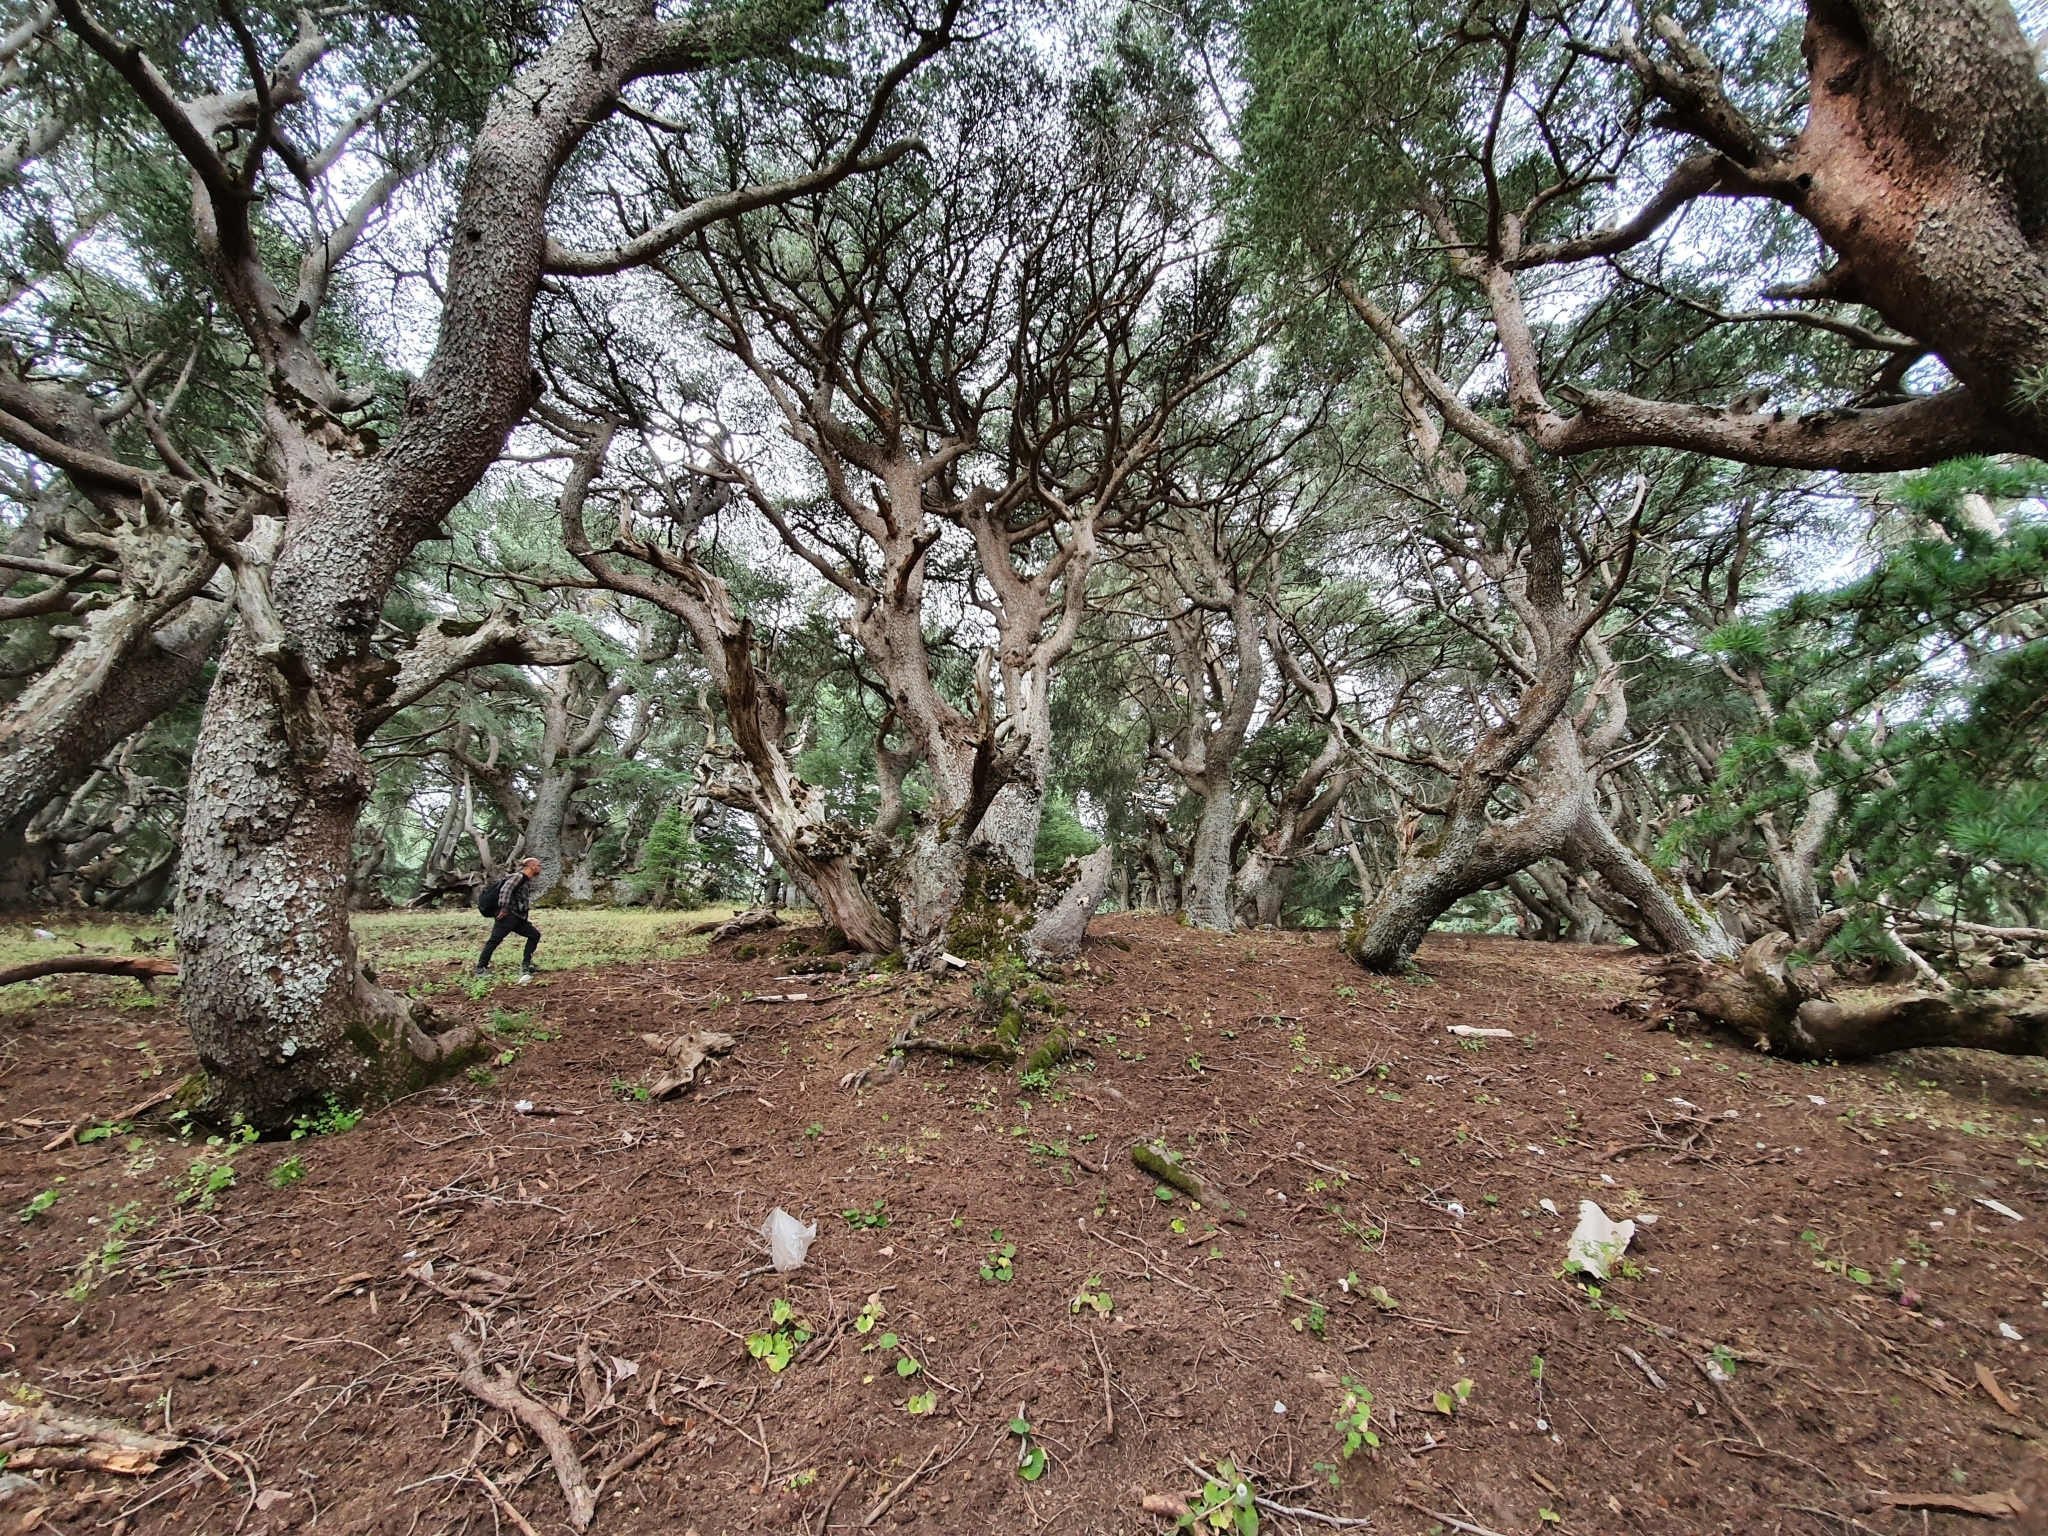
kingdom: Plantae
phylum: Tracheophyta
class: Pinopsida
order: Pinales
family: Pinaceae
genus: Cedrus
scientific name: Cedrus atlantica
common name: Atlas cedar
